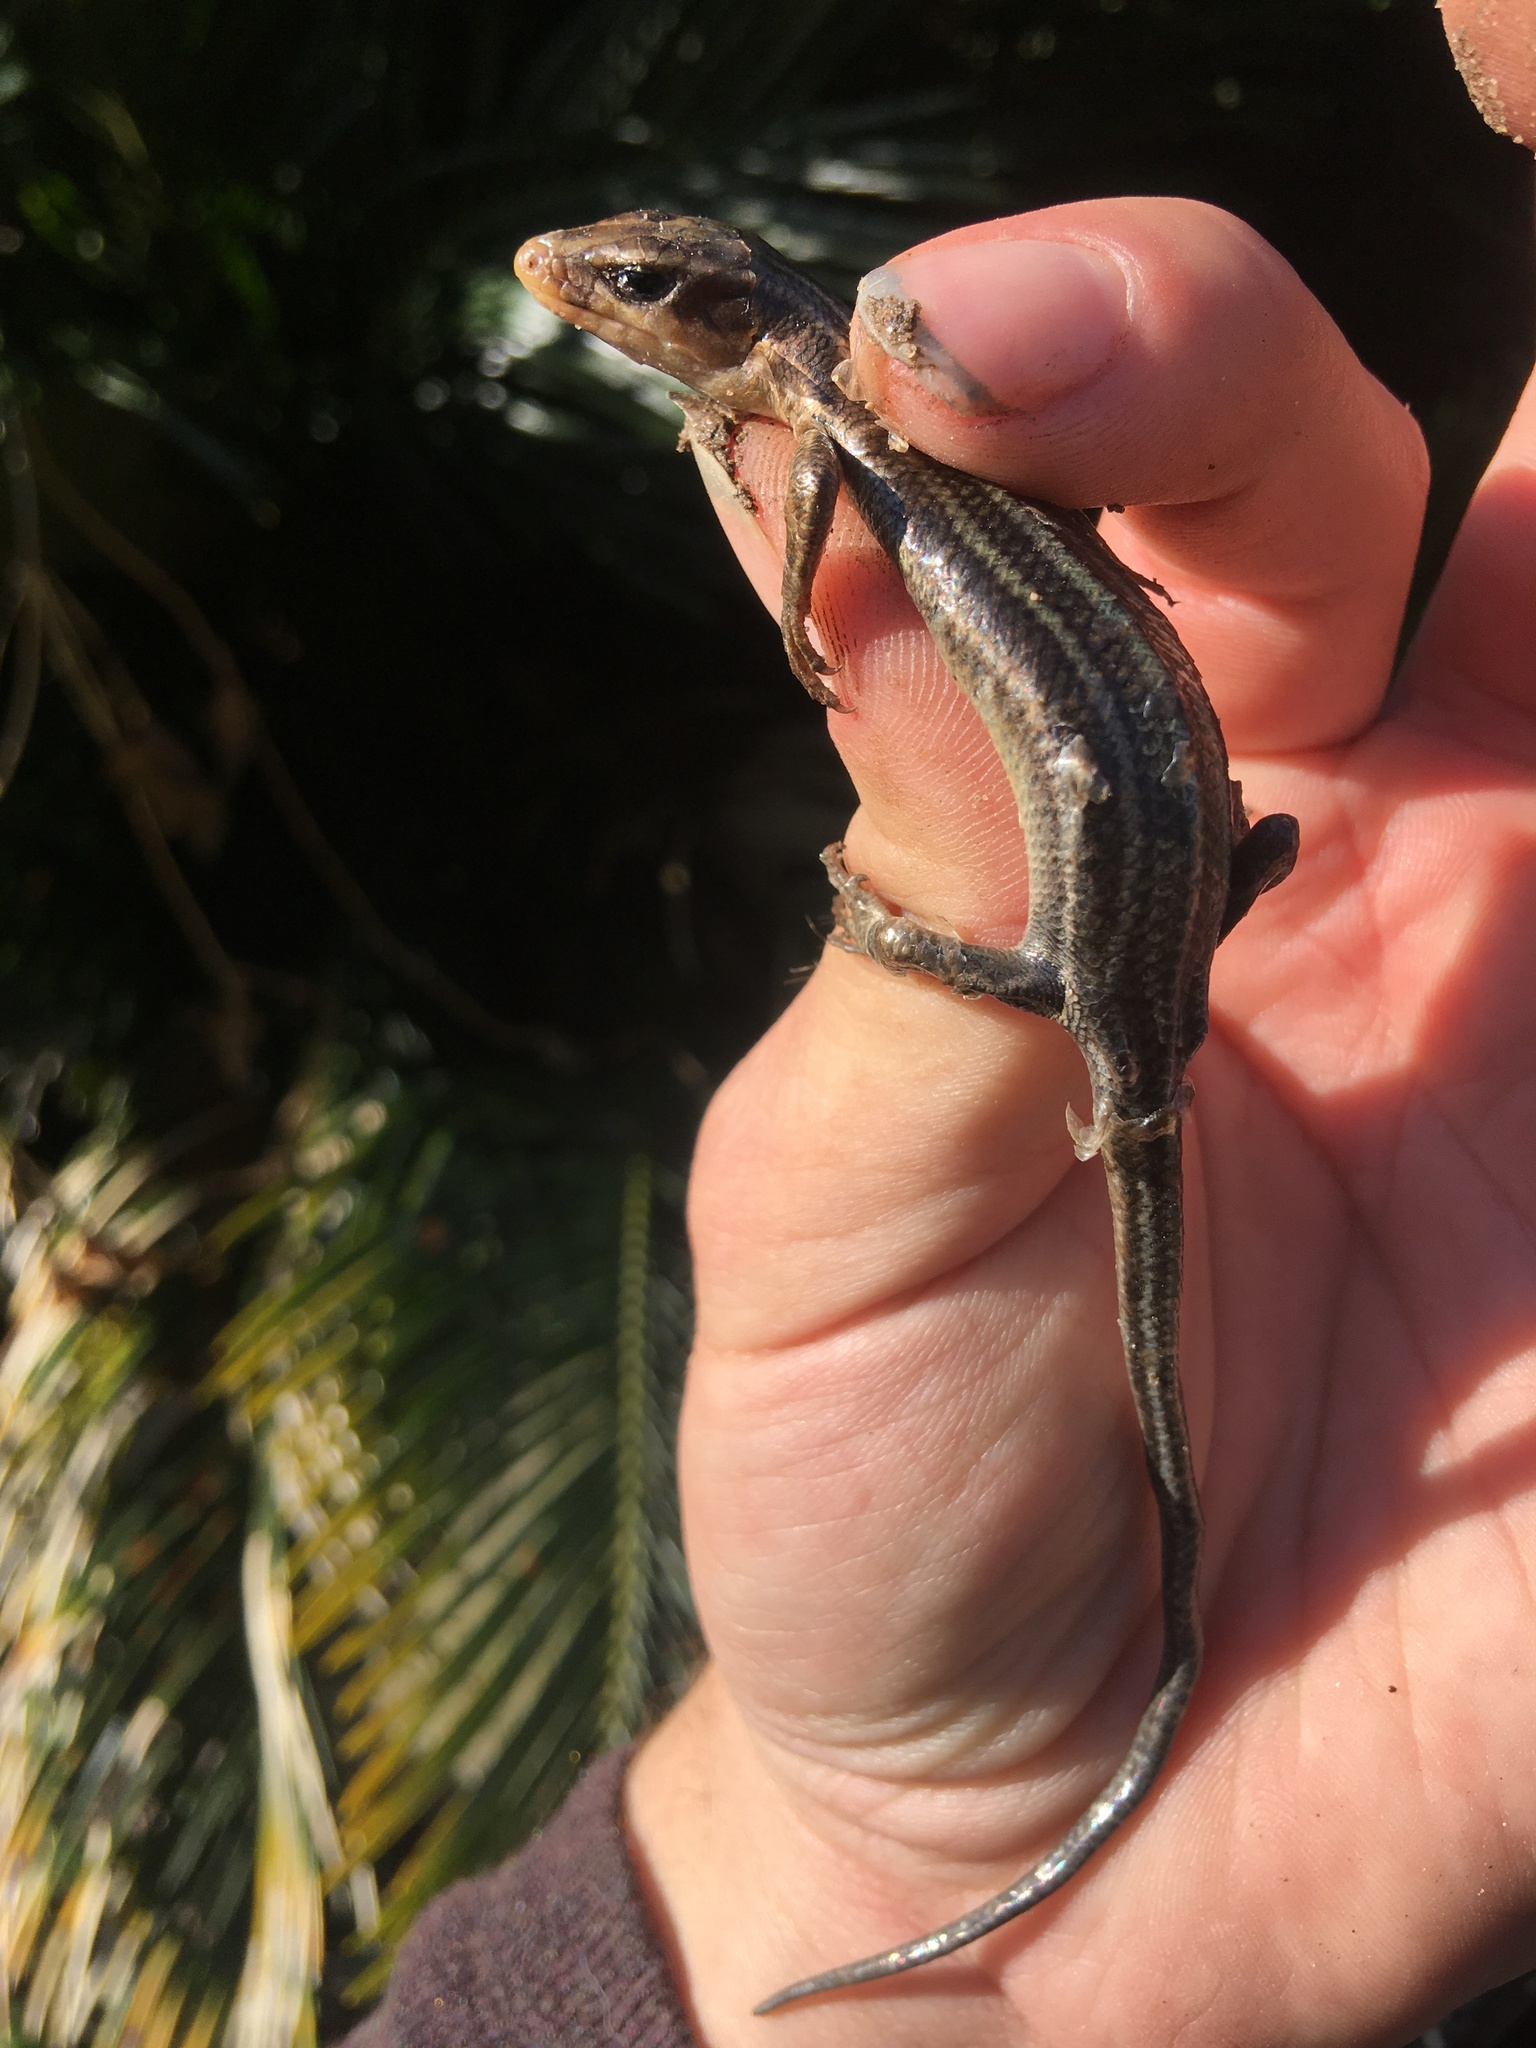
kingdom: Animalia
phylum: Chordata
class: Squamata
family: Scincidae
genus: Plestiodon
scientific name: Plestiodon fasciatus
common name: Five-lined skink
